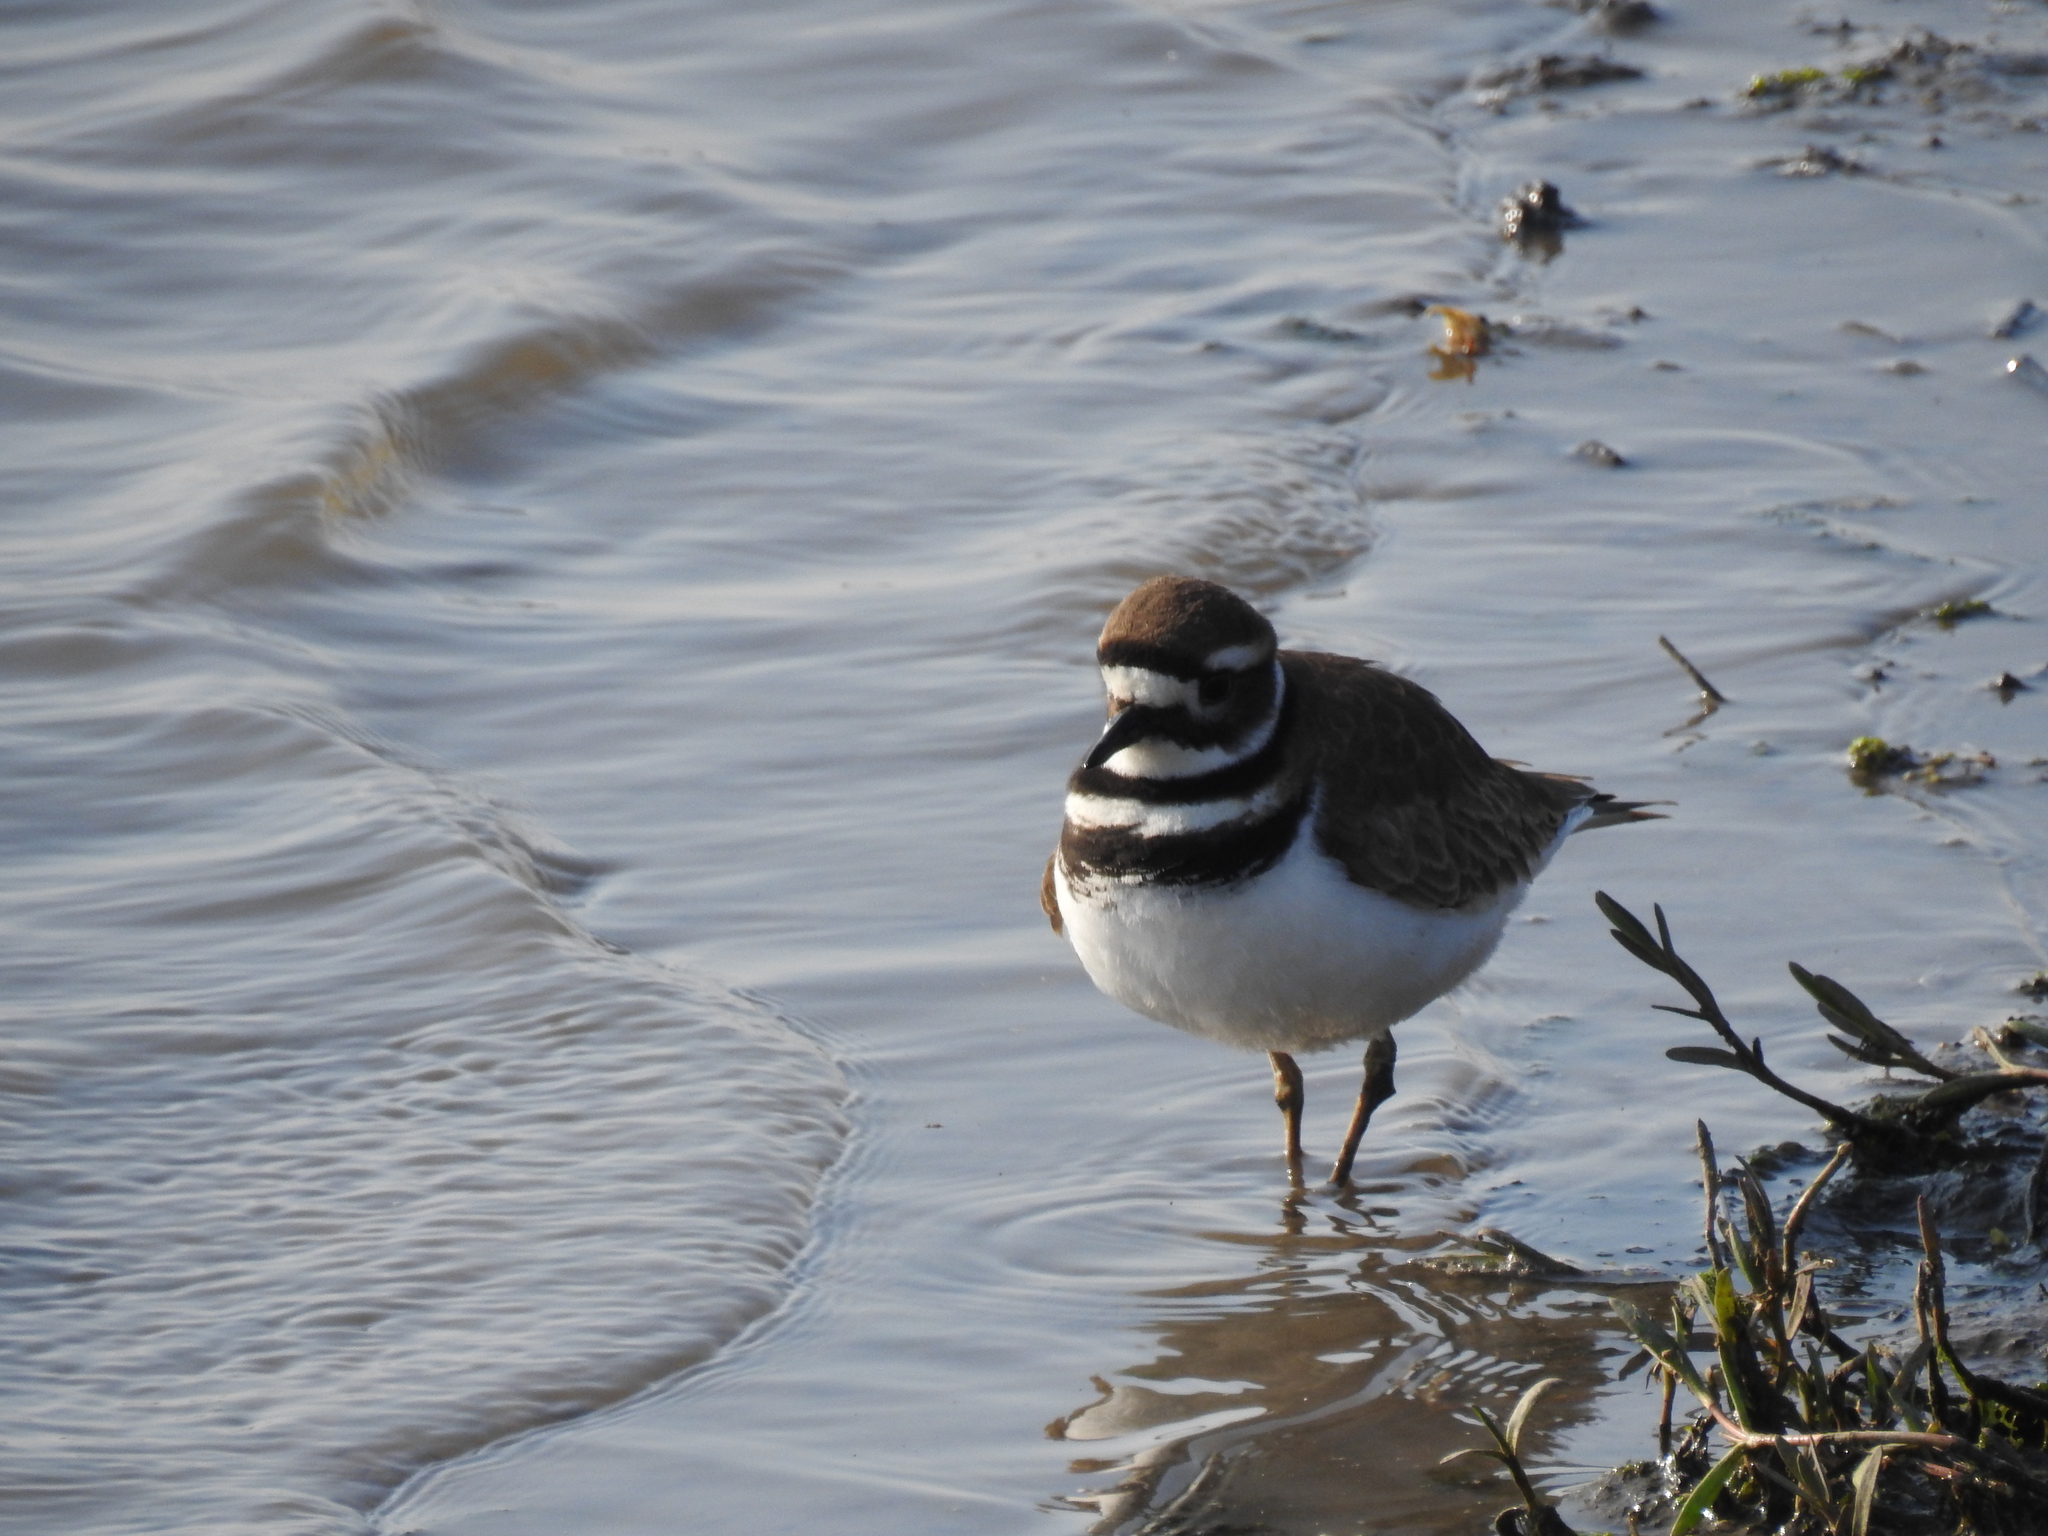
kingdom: Animalia
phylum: Chordata
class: Aves
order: Charadriiformes
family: Charadriidae
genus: Charadrius
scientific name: Charadrius vociferus
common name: Killdeer
